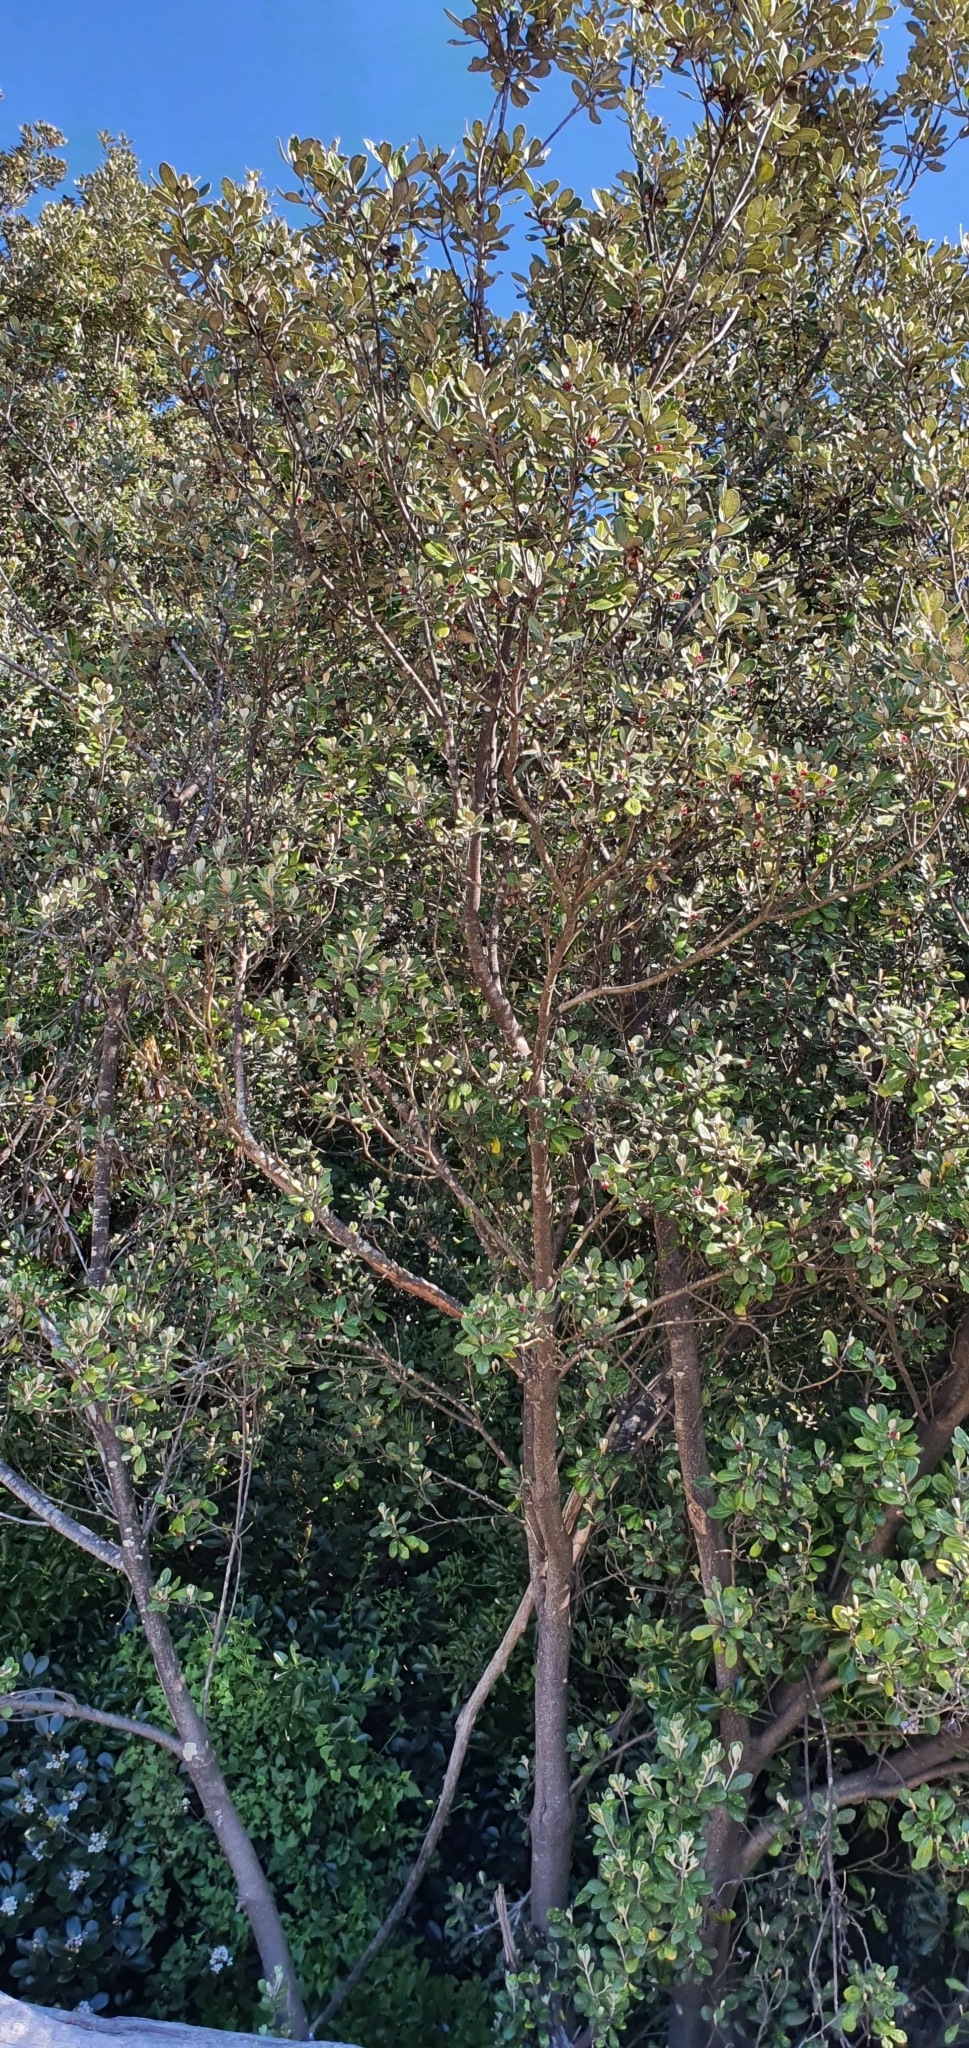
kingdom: Plantae
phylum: Tracheophyta
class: Magnoliopsida
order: Apiales
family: Pittosporaceae
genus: Pittosporum
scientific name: Pittosporum crassifolium
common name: Karo
